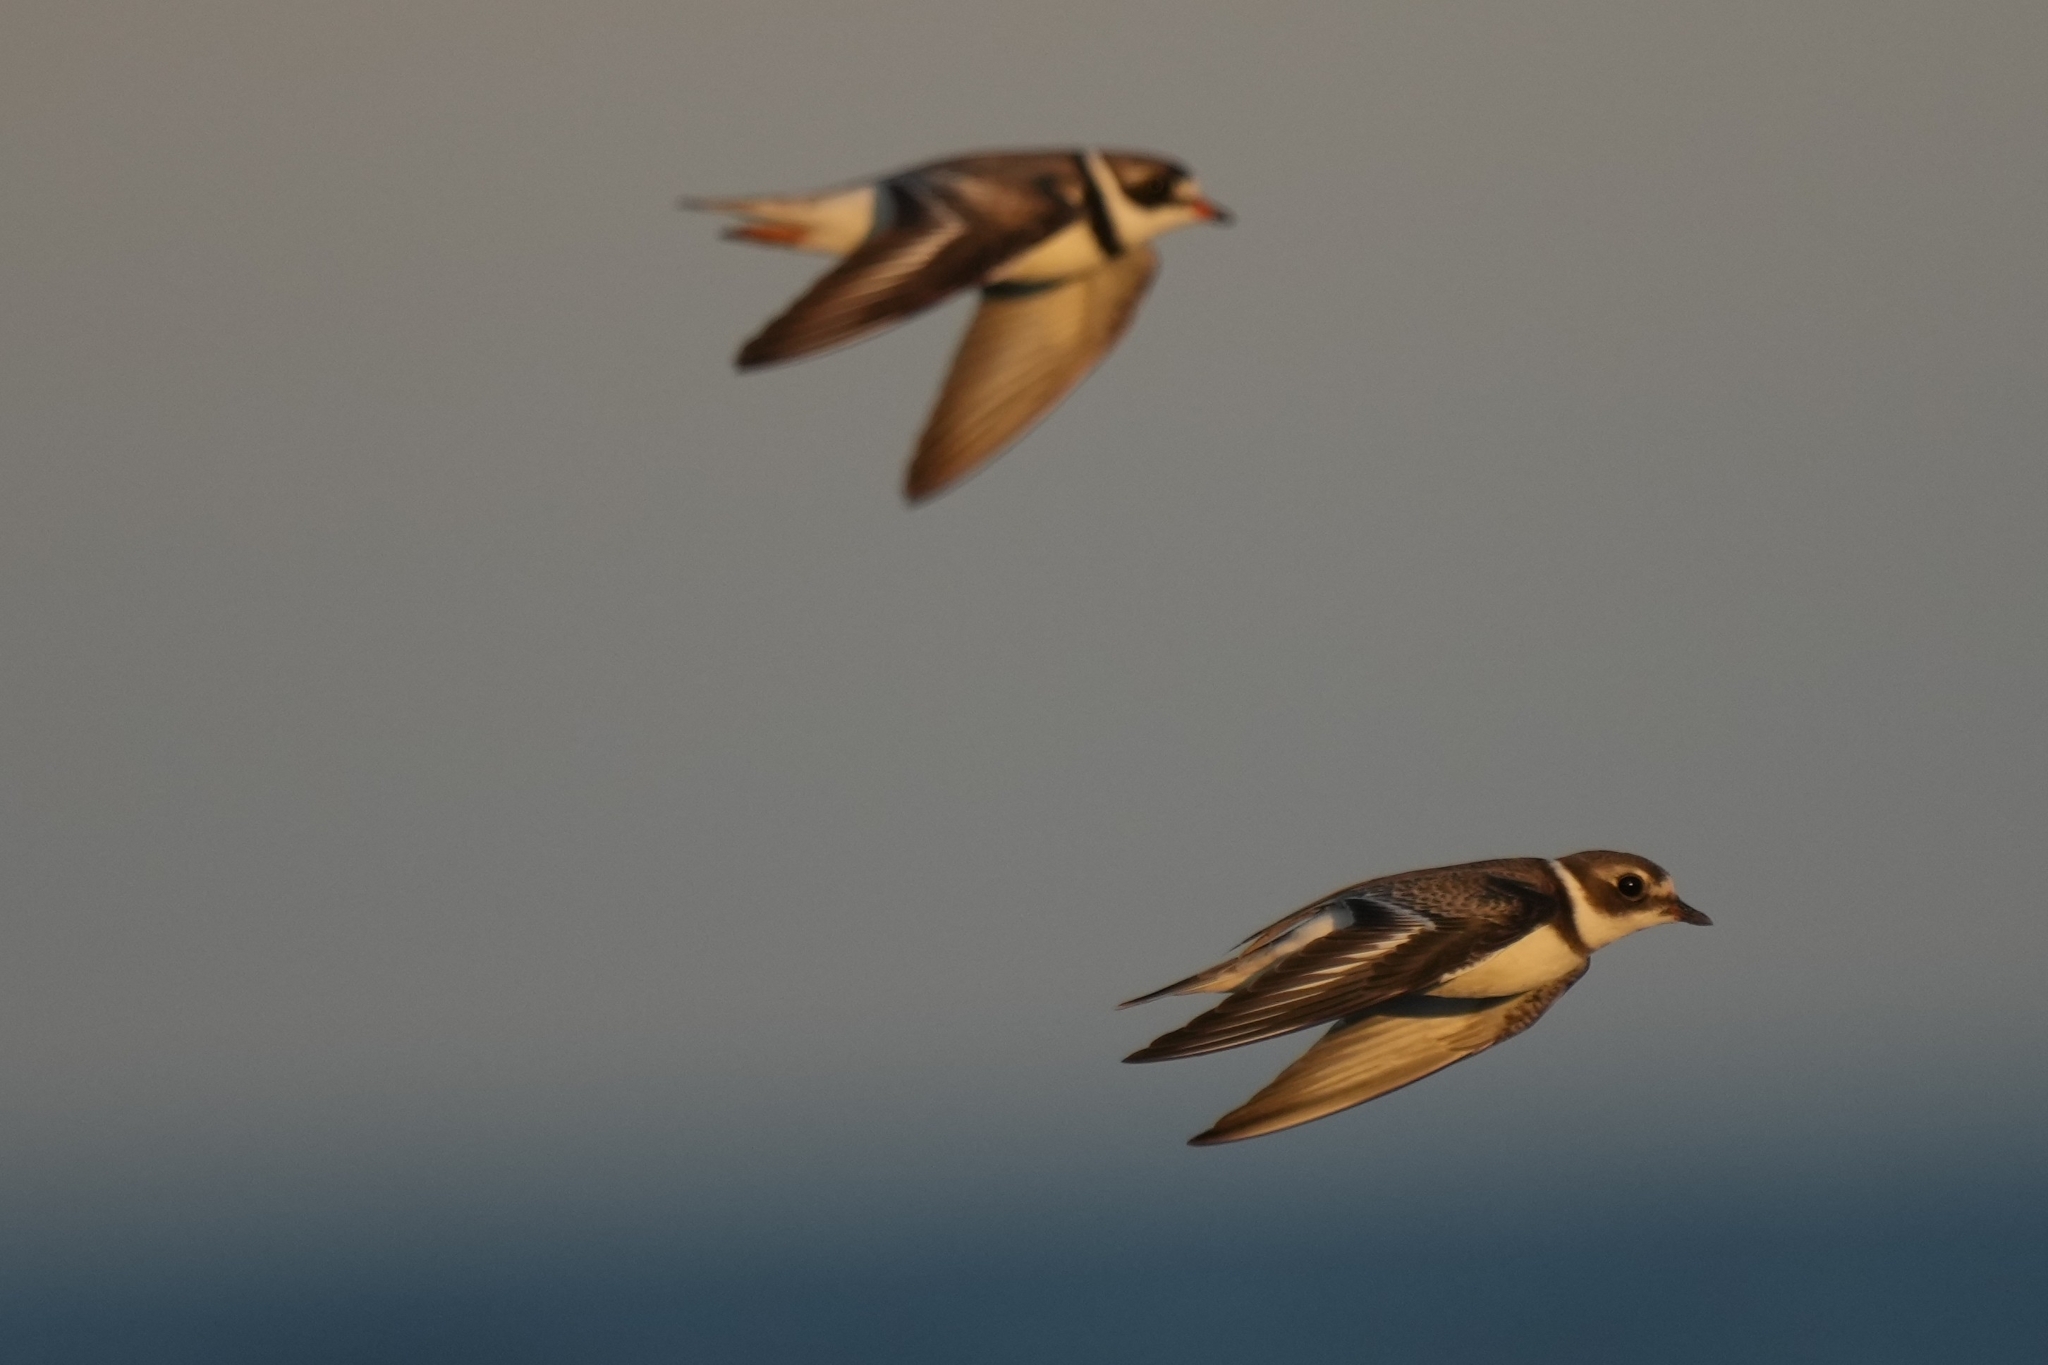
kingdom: Animalia
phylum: Chordata
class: Aves
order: Charadriiformes
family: Charadriidae
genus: Charadrius
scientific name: Charadrius semipalmatus
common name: Semipalmated plover
